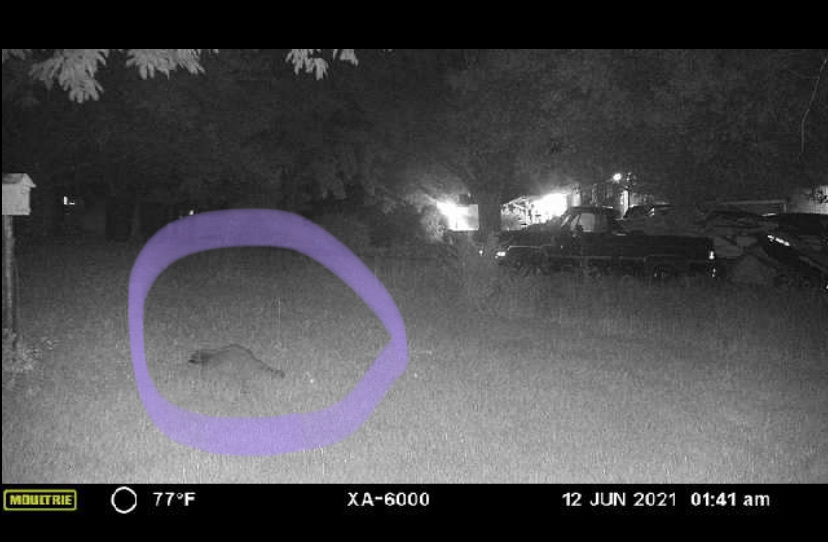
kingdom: Animalia
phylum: Chordata
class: Mammalia
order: Carnivora
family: Procyonidae
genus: Procyon
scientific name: Procyon lotor
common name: Raccoon
